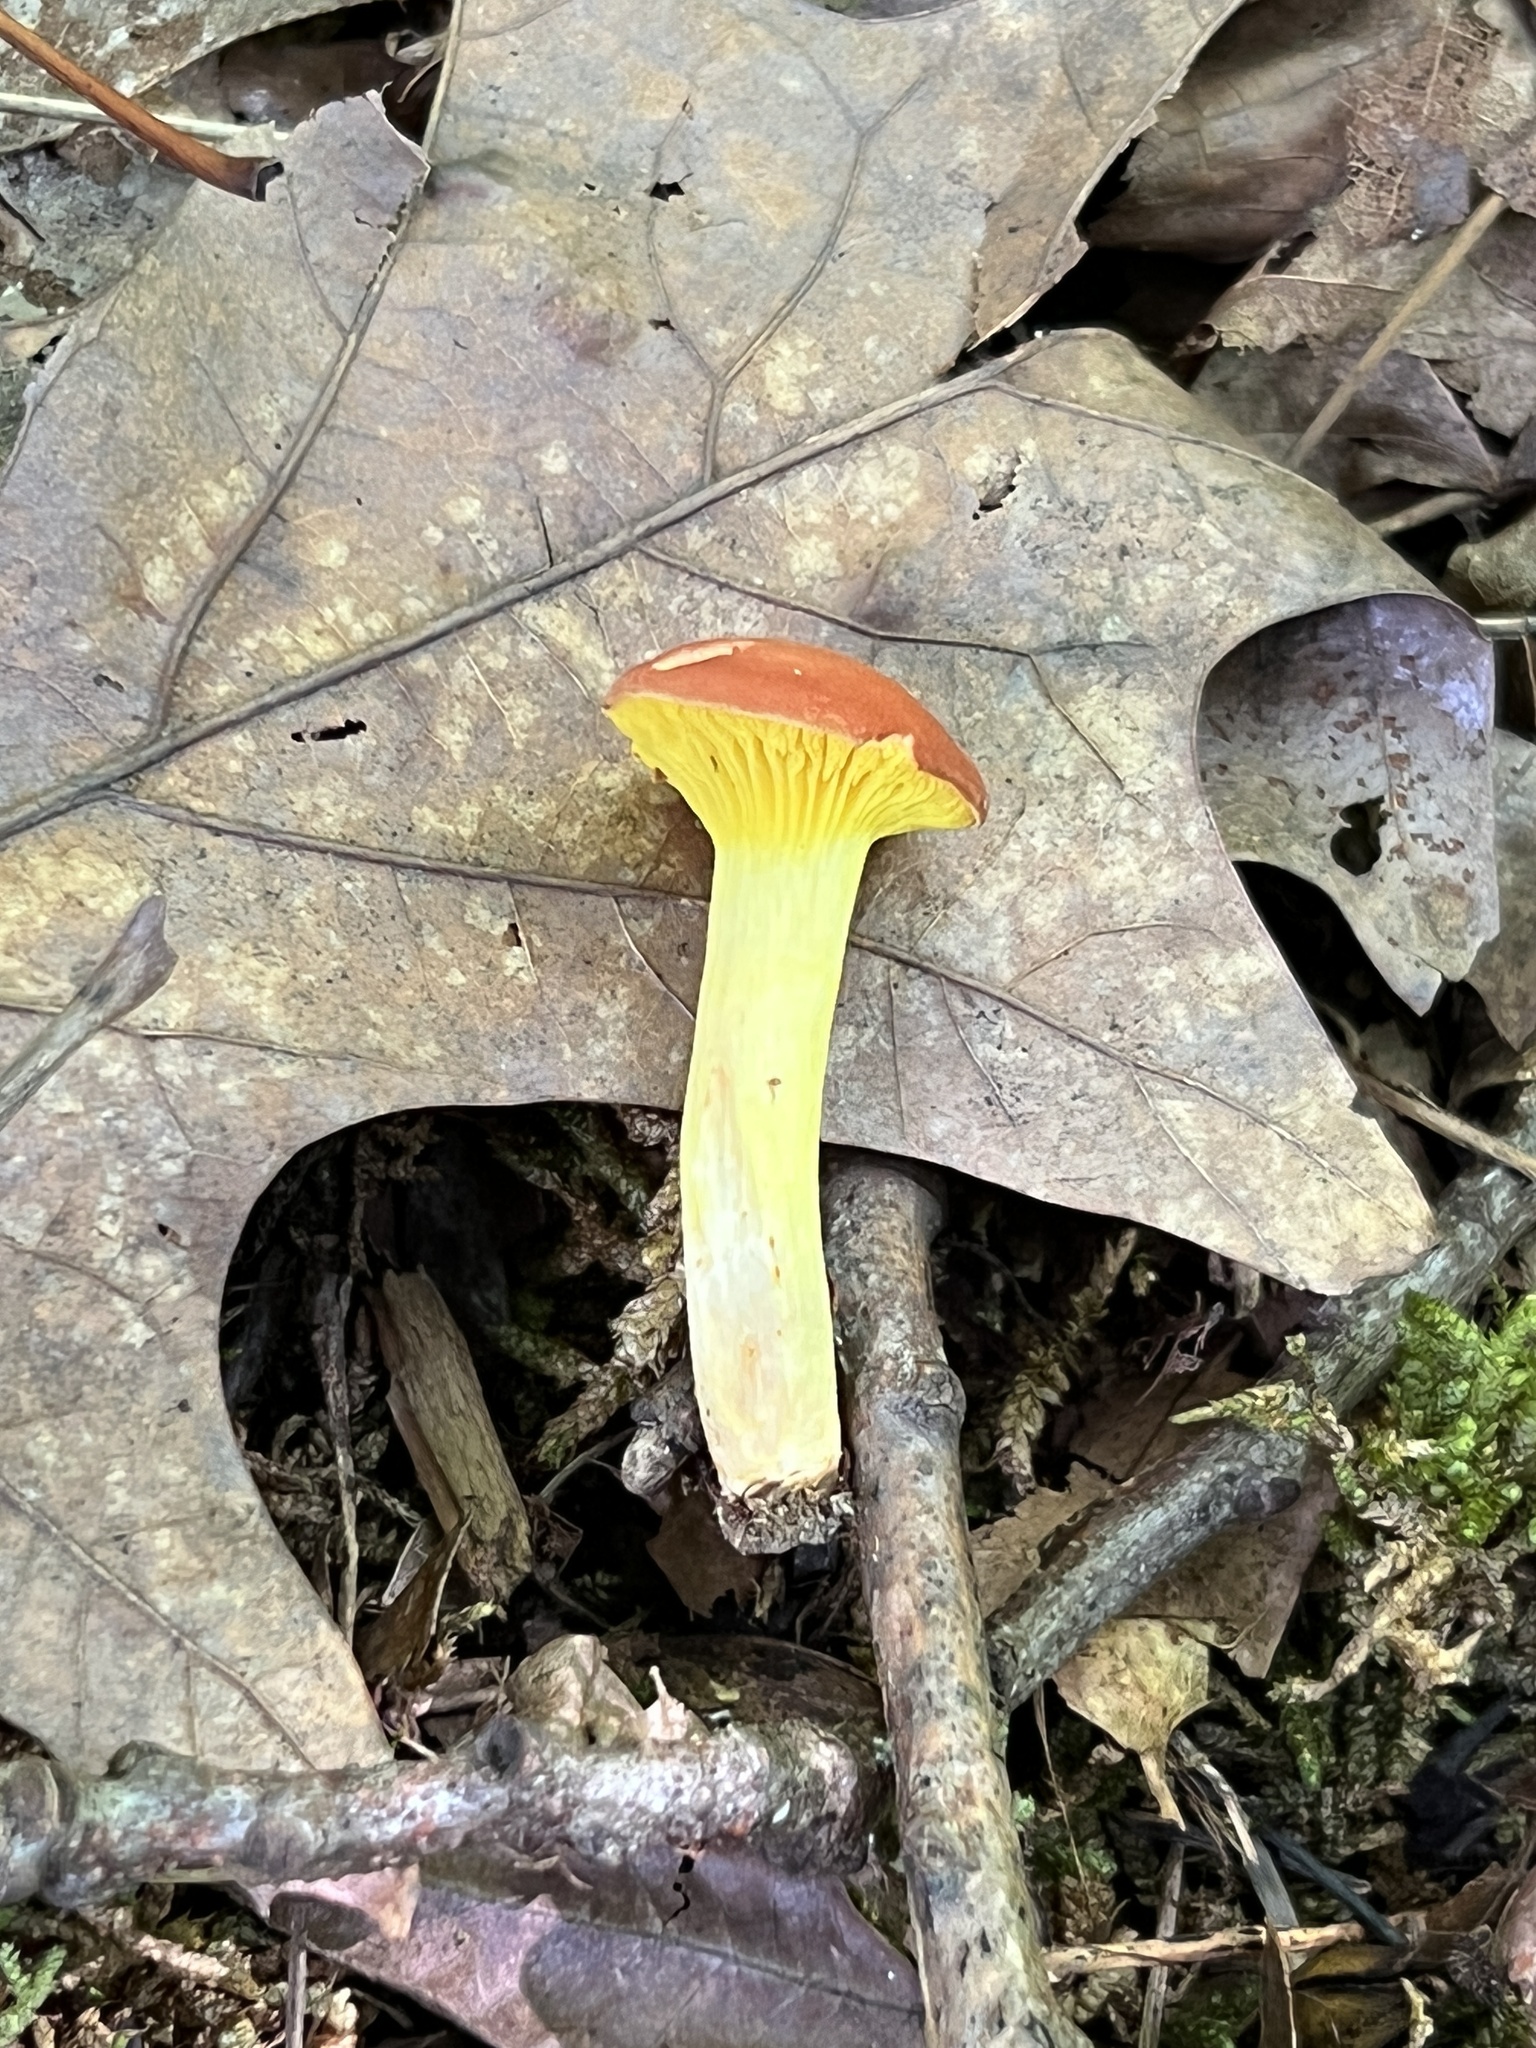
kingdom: Fungi
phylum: Basidiomycota
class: Agaricomycetes
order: Boletales
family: Boletaceae
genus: Phylloporus
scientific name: Phylloporus leucomycelinus
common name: Gilled bolete
